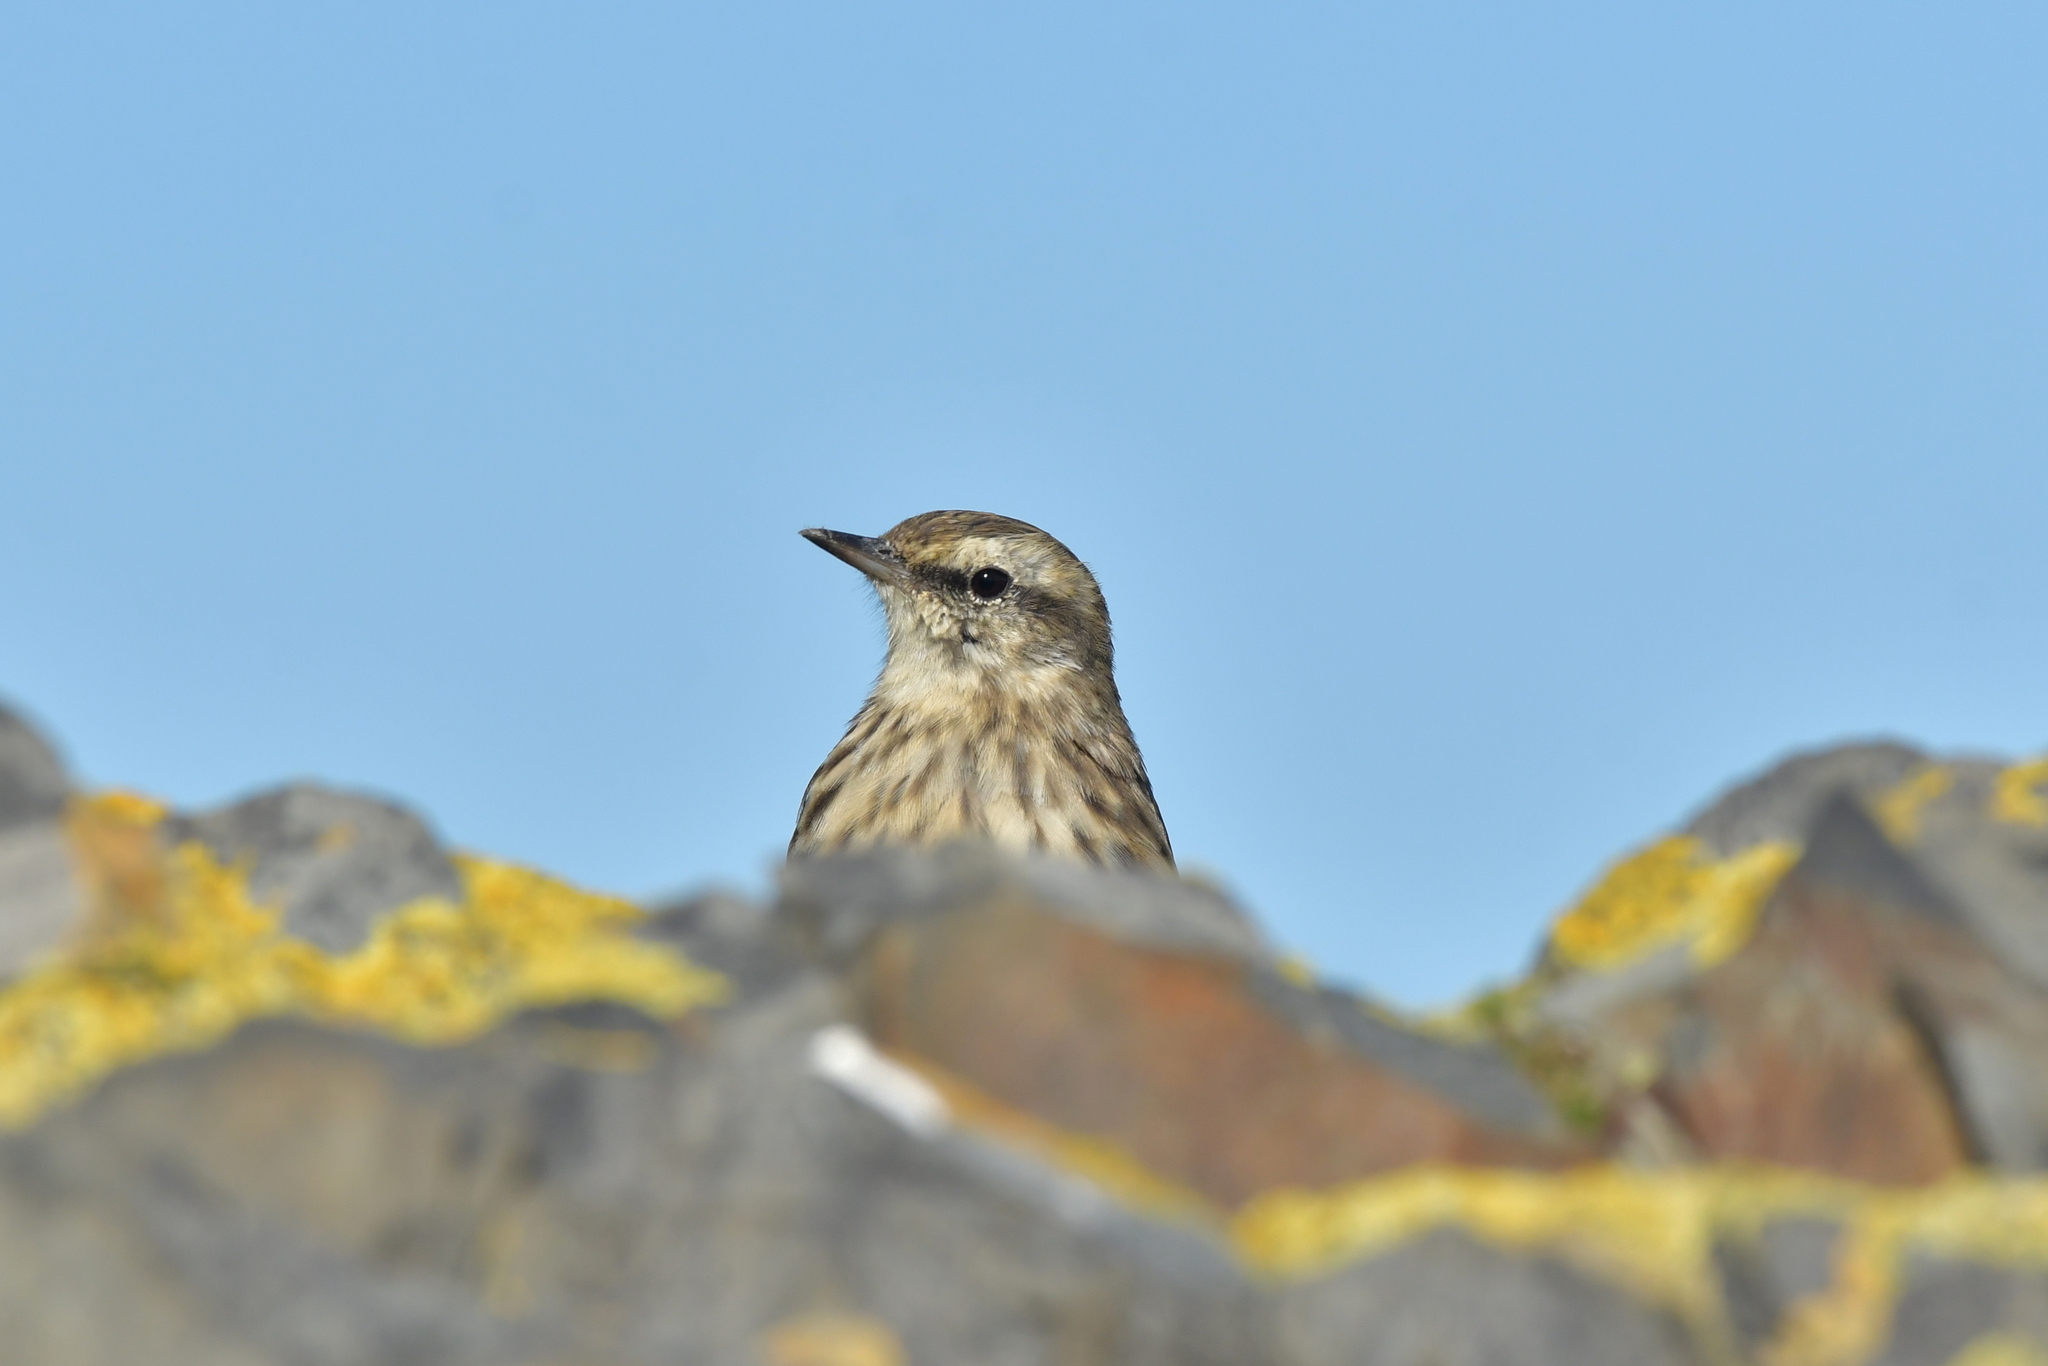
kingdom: Animalia
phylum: Chordata
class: Aves
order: Passeriformes
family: Motacillidae
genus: Anthus
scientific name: Anthus novaeseelandiae
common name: New zealand pipit
